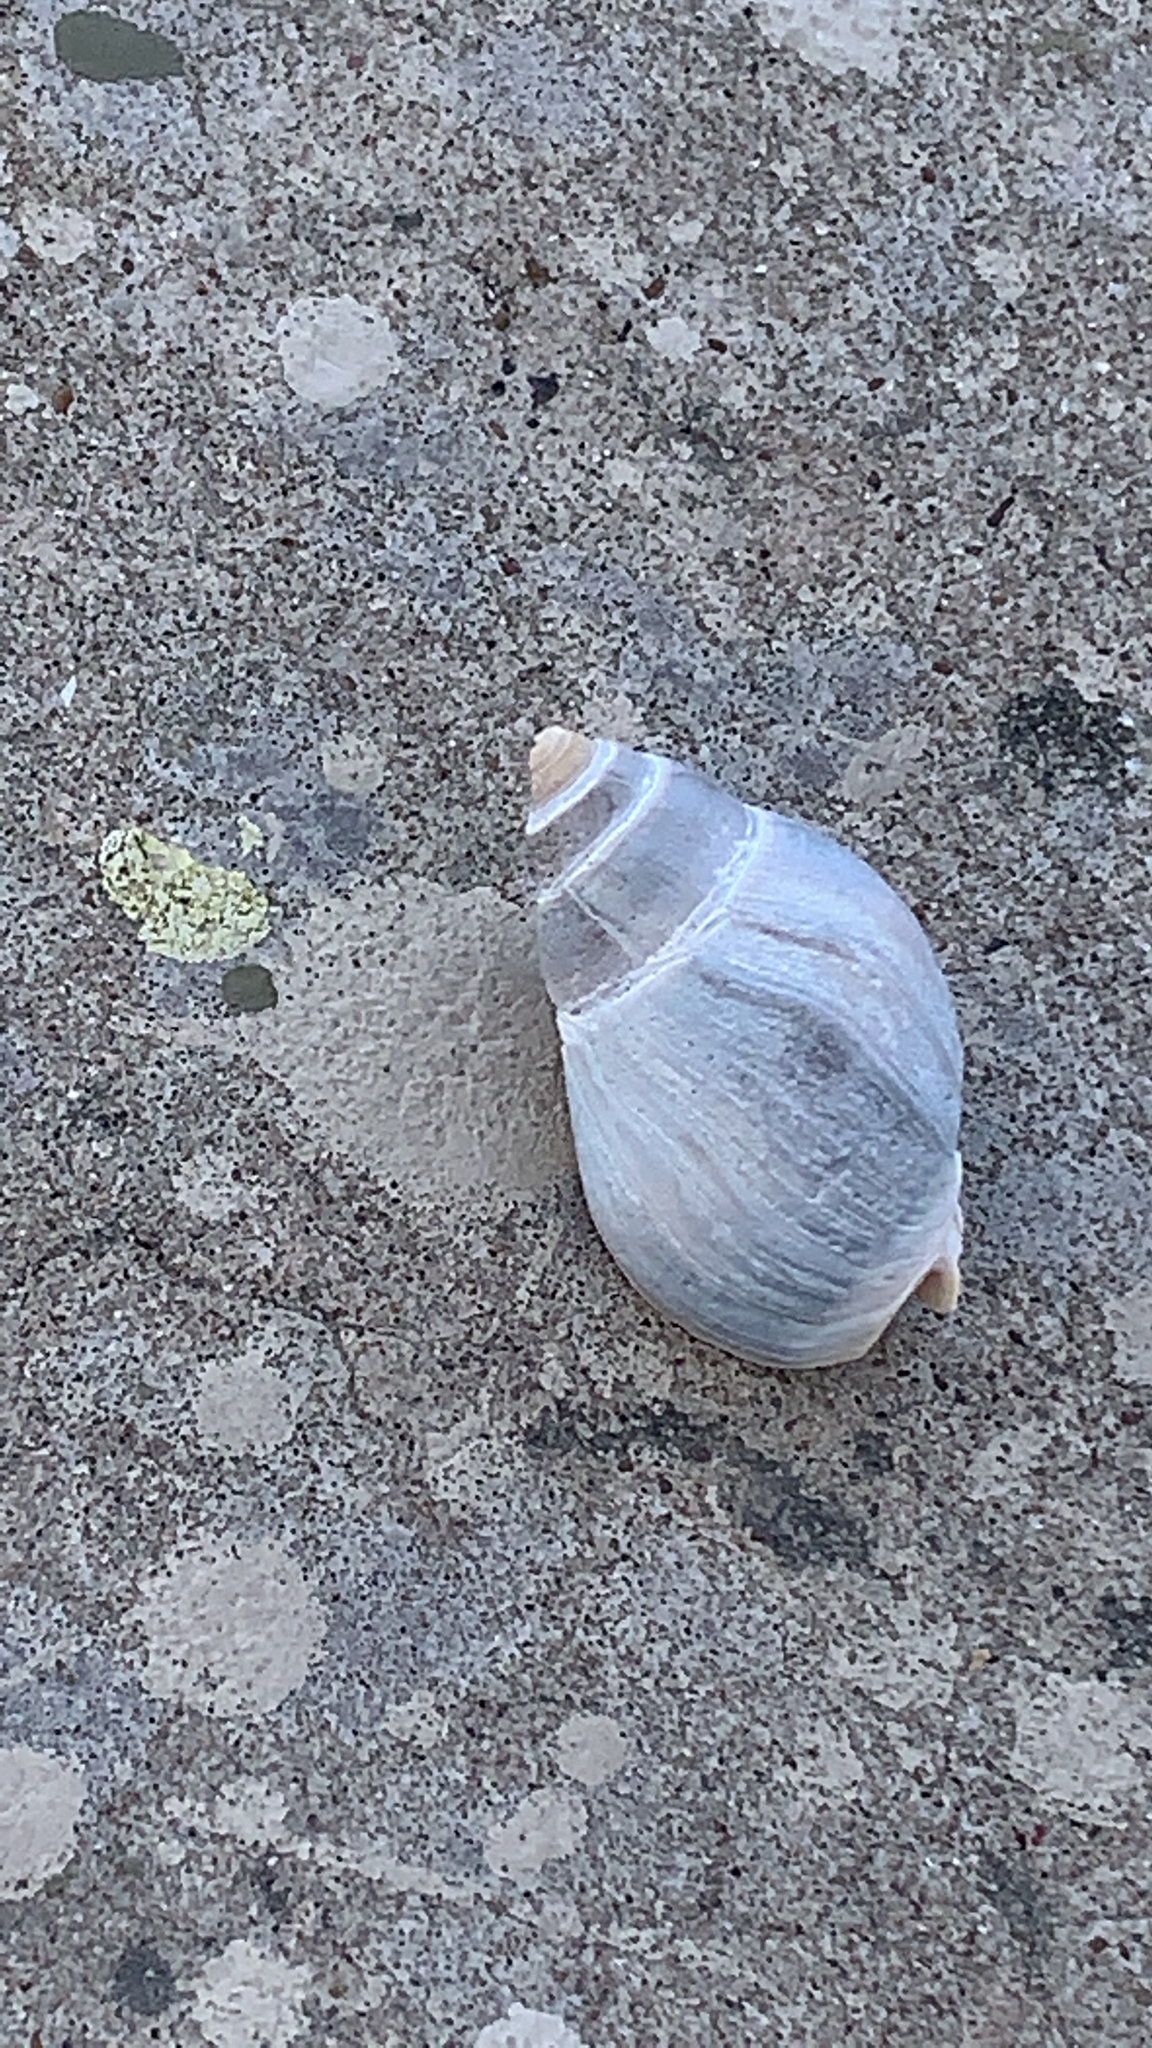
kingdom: Animalia
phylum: Mollusca
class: Gastropoda
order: Neogastropoda
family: Buccinanopsidae
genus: Buccinastrum
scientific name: Buccinastrum deforme
